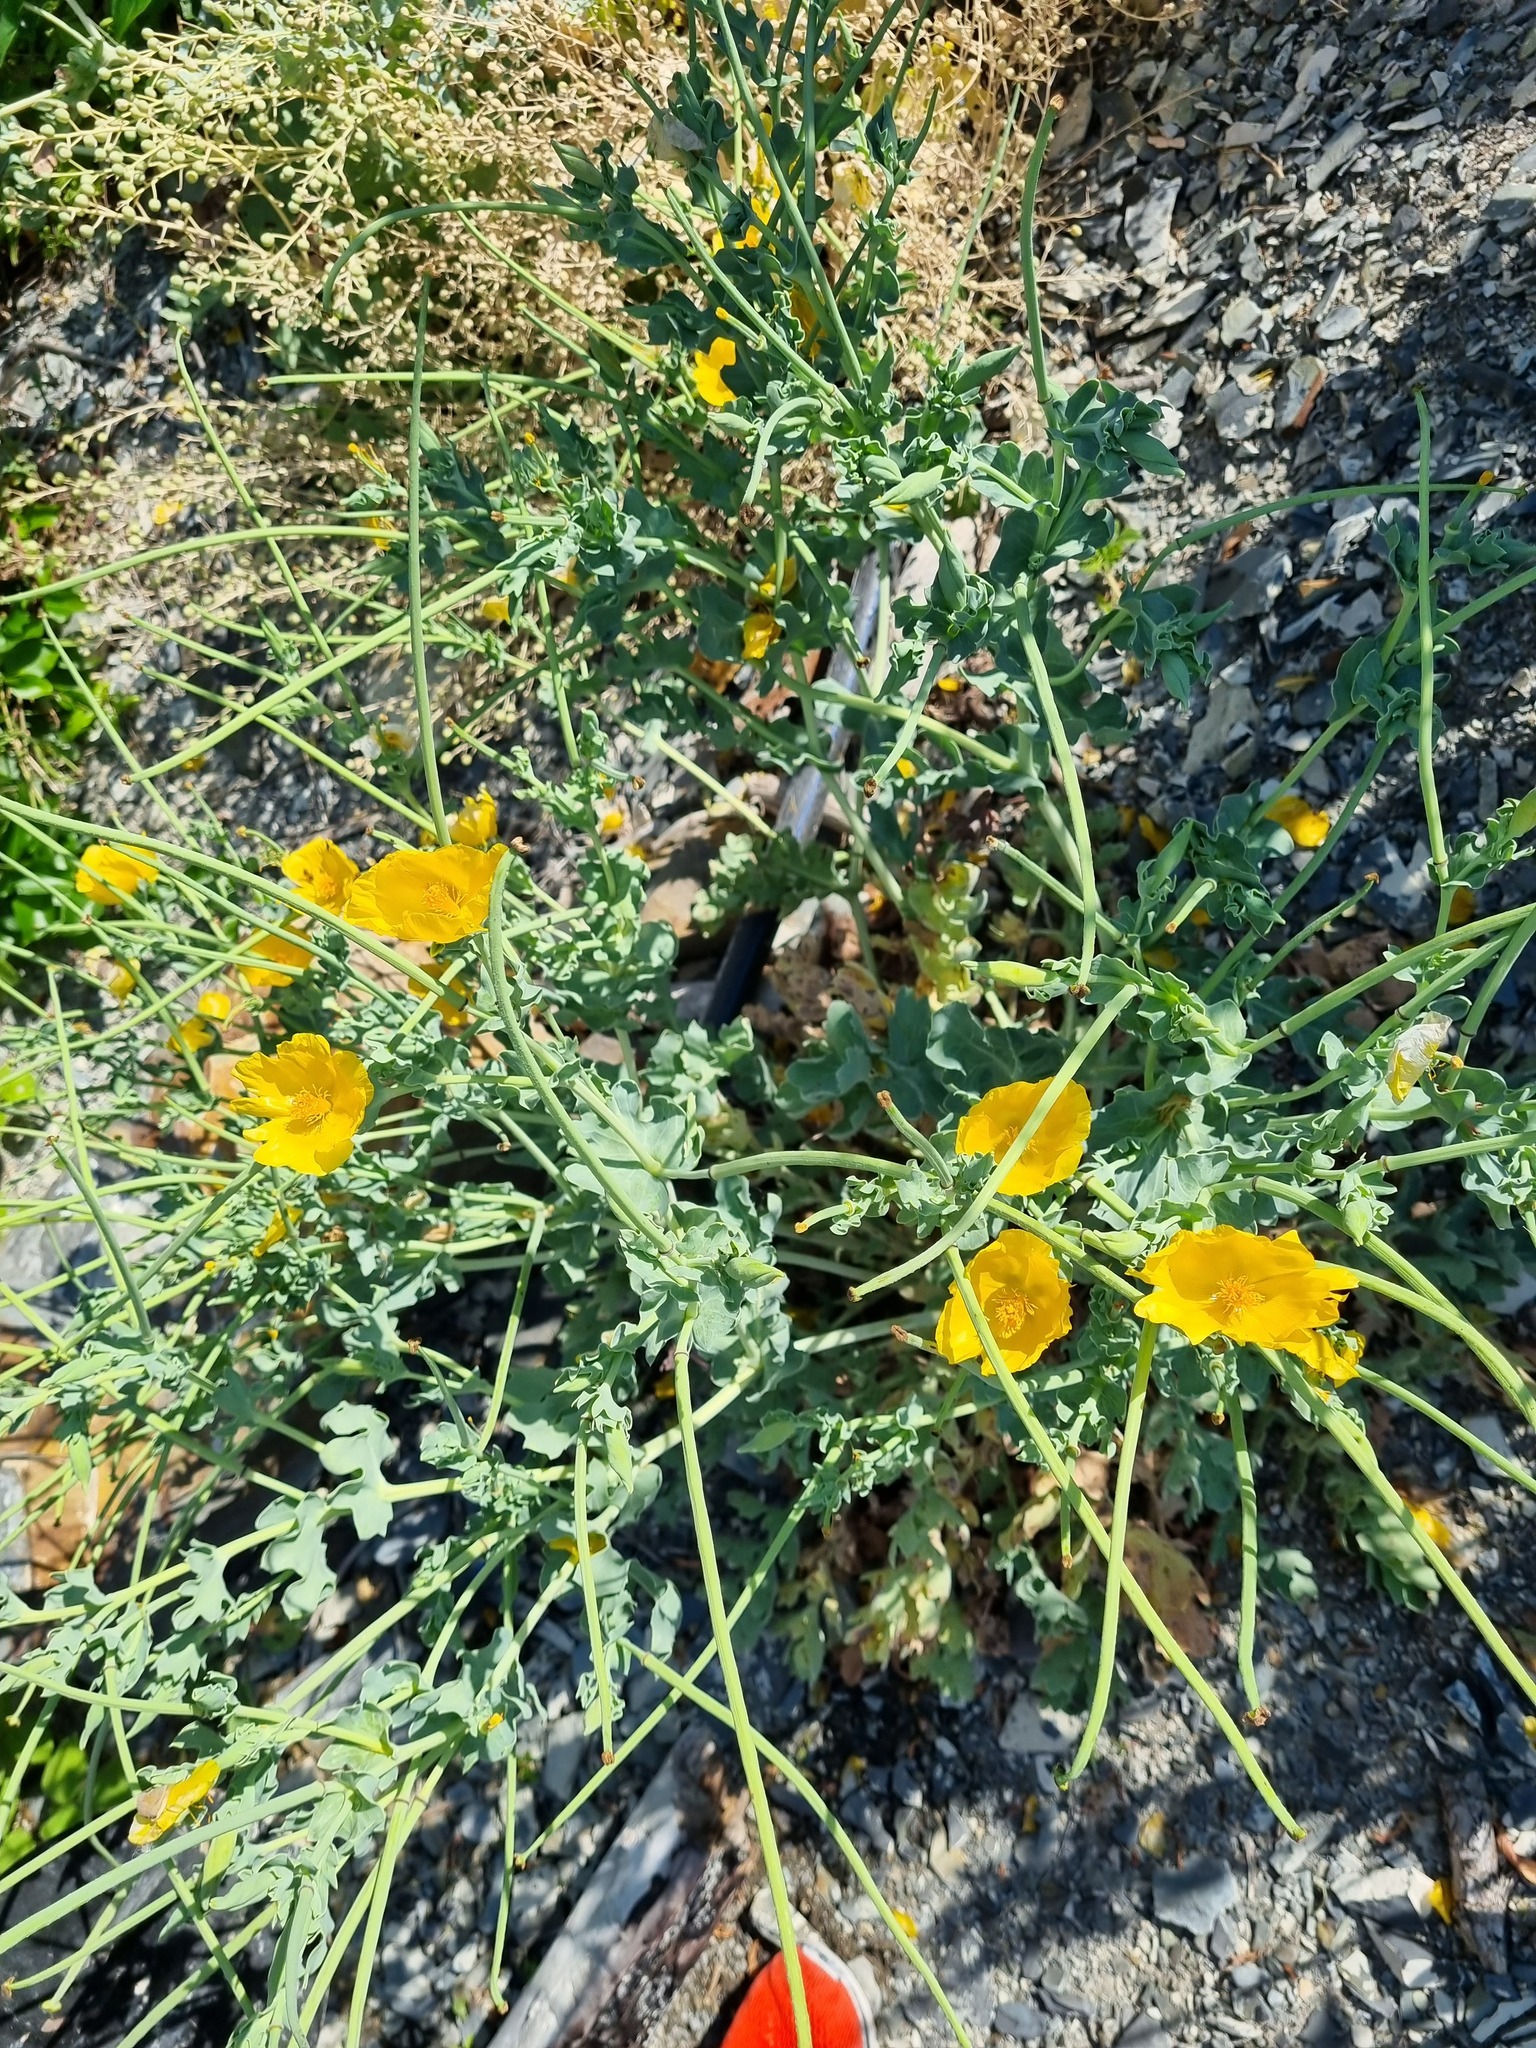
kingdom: Plantae
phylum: Tracheophyta
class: Magnoliopsida
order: Ranunculales
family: Papaveraceae
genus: Glaucium
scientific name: Glaucium flavum
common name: Yellow horned-poppy
